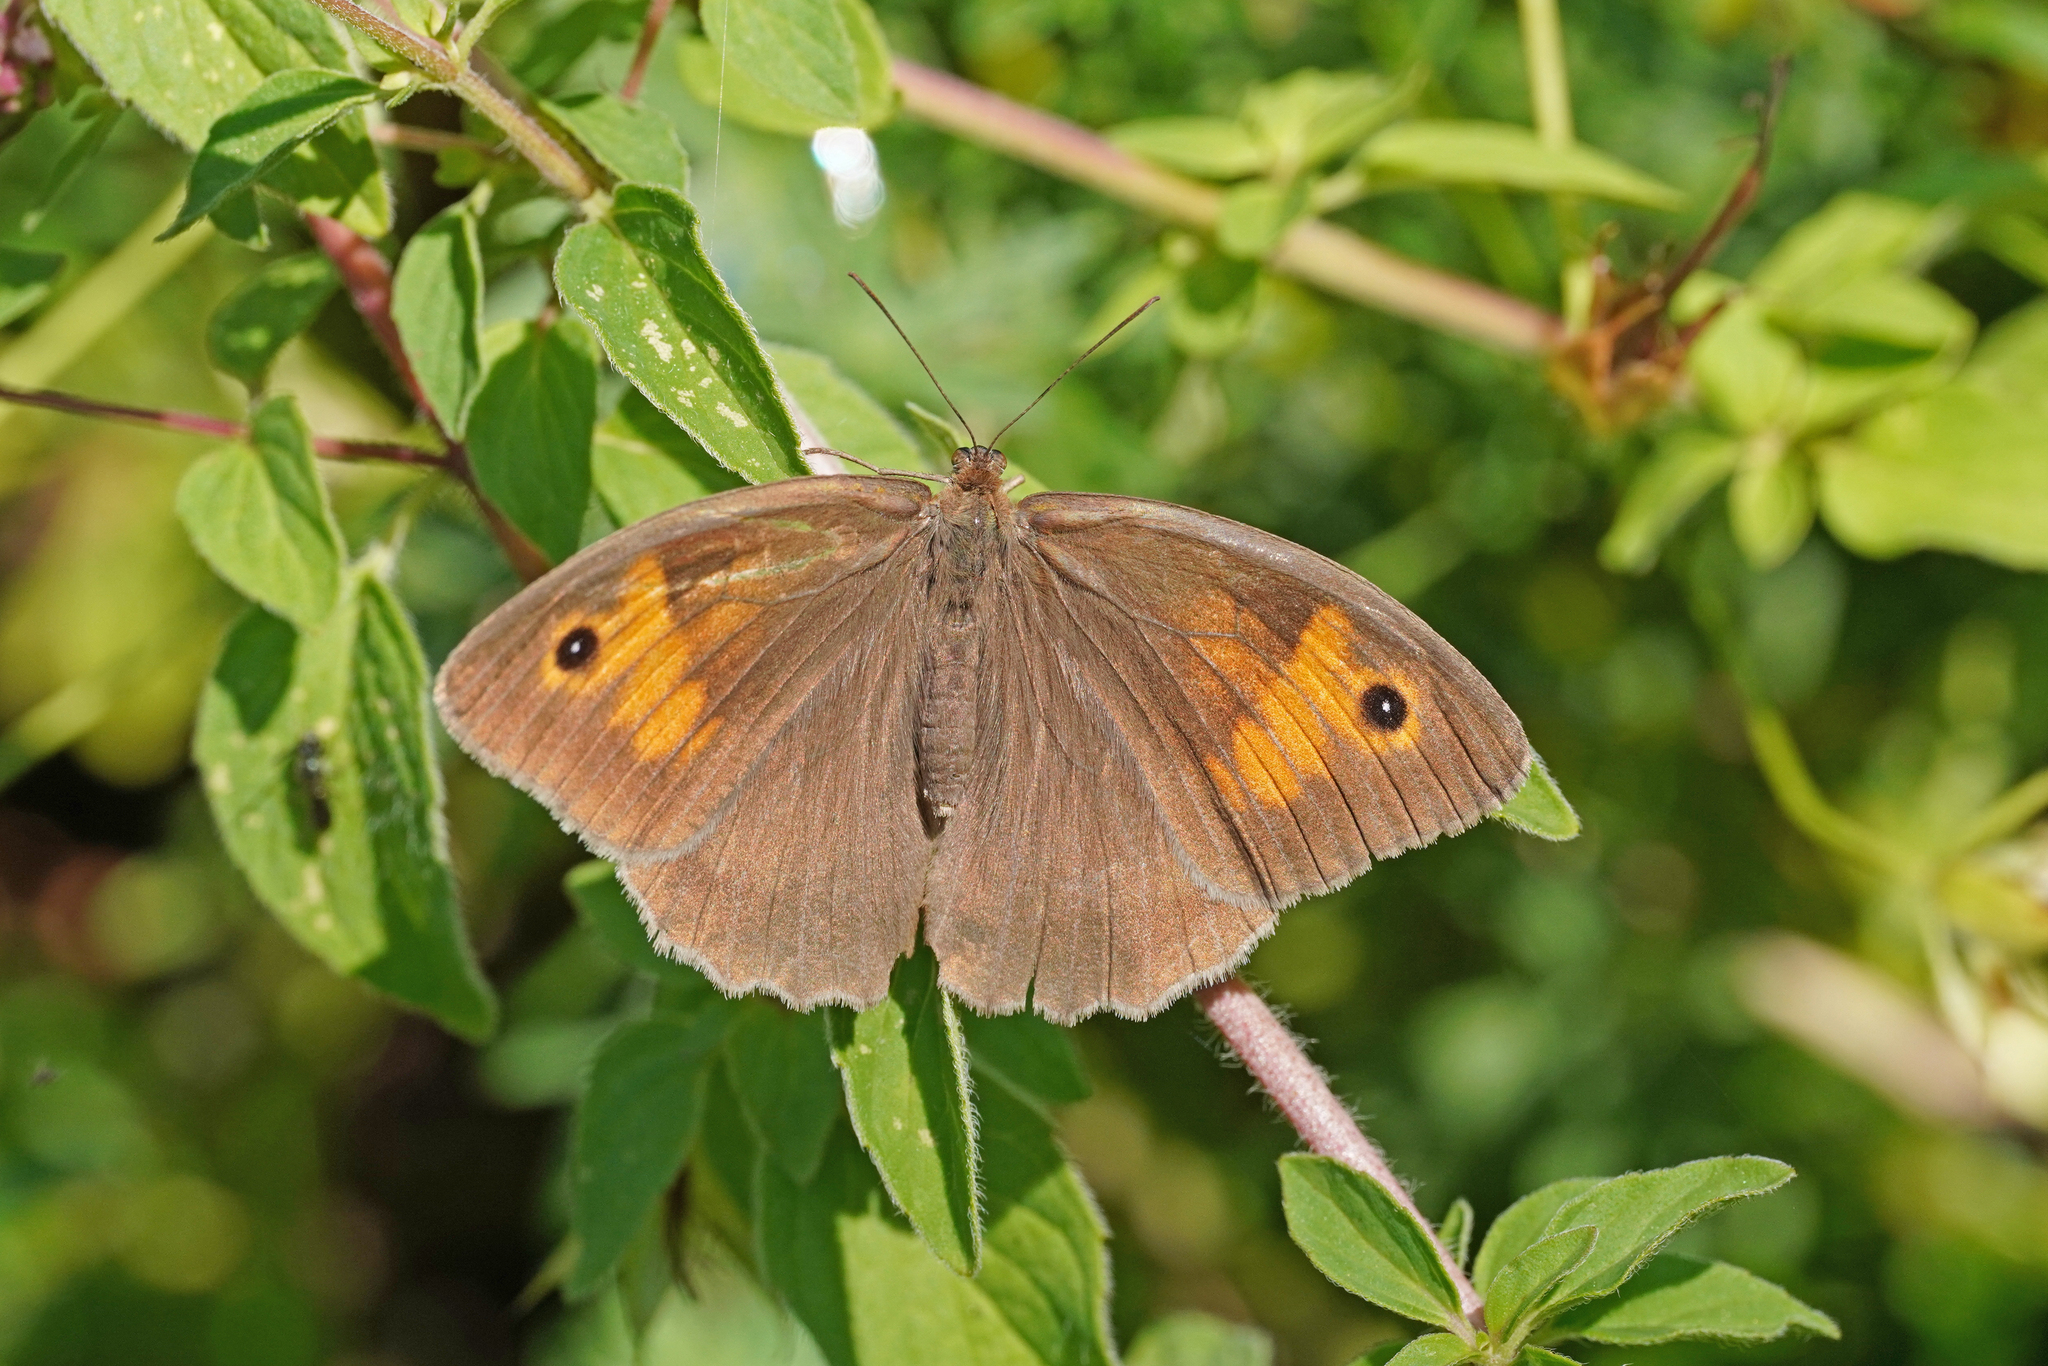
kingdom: Animalia
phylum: Arthropoda
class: Insecta
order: Lepidoptera
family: Nymphalidae
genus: Maniola
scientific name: Maniola jurtina
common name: Meadow brown
